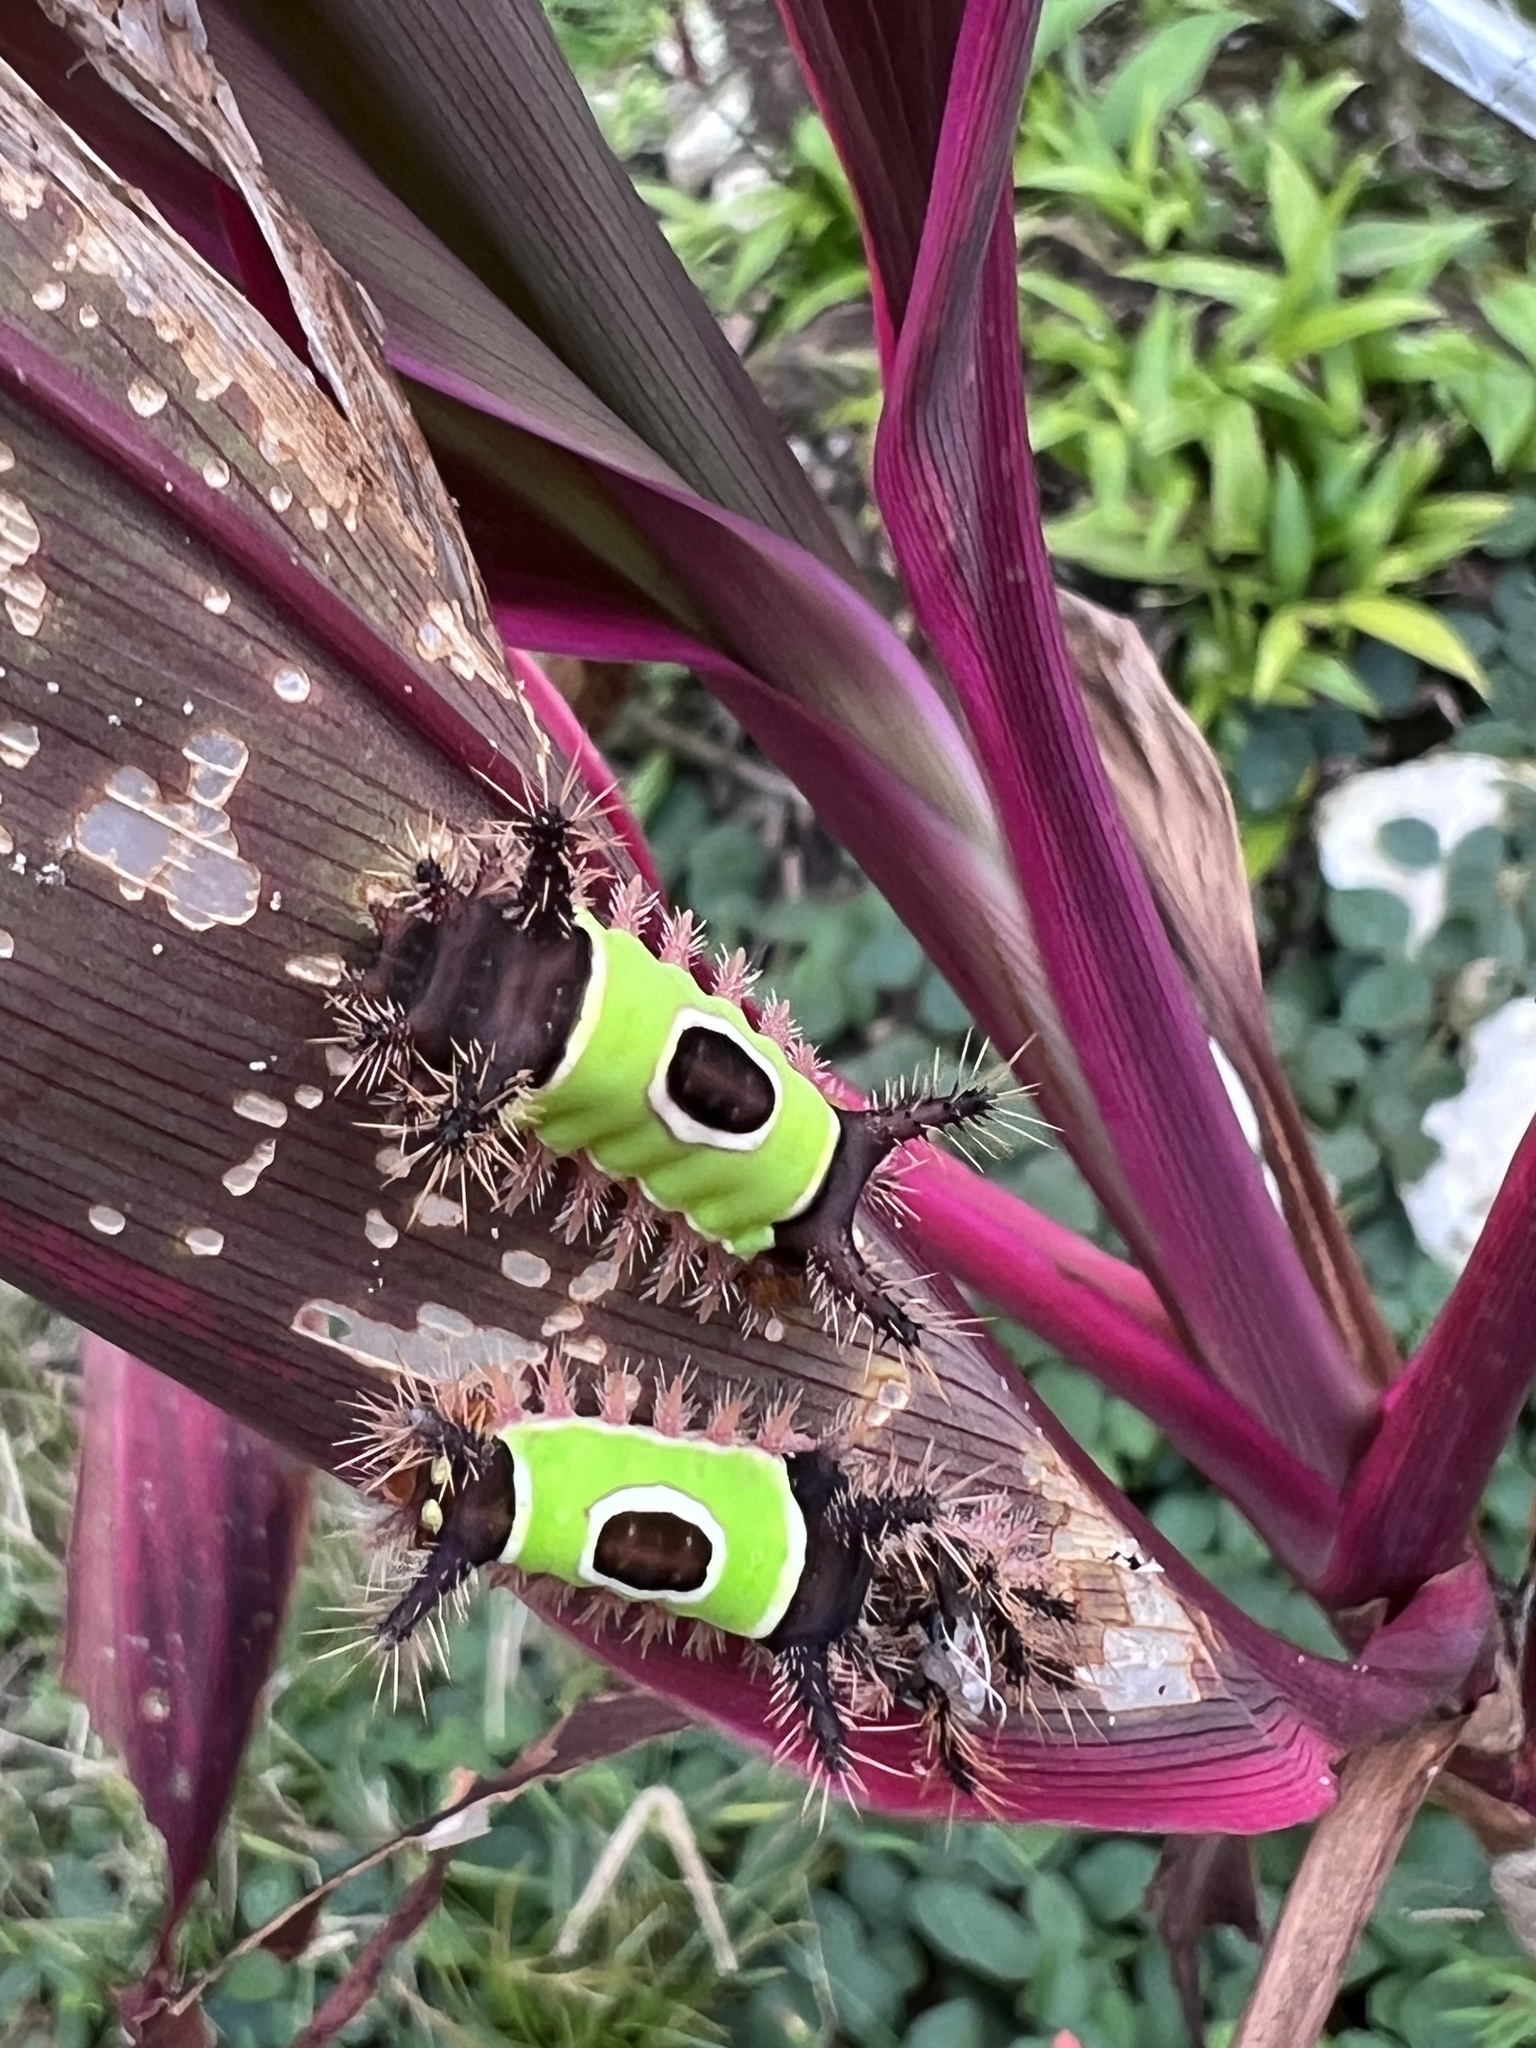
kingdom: Animalia
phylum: Arthropoda
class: Insecta
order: Lepidoptera
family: Limacodidae
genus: Acharia
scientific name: Acharia hyperoche
